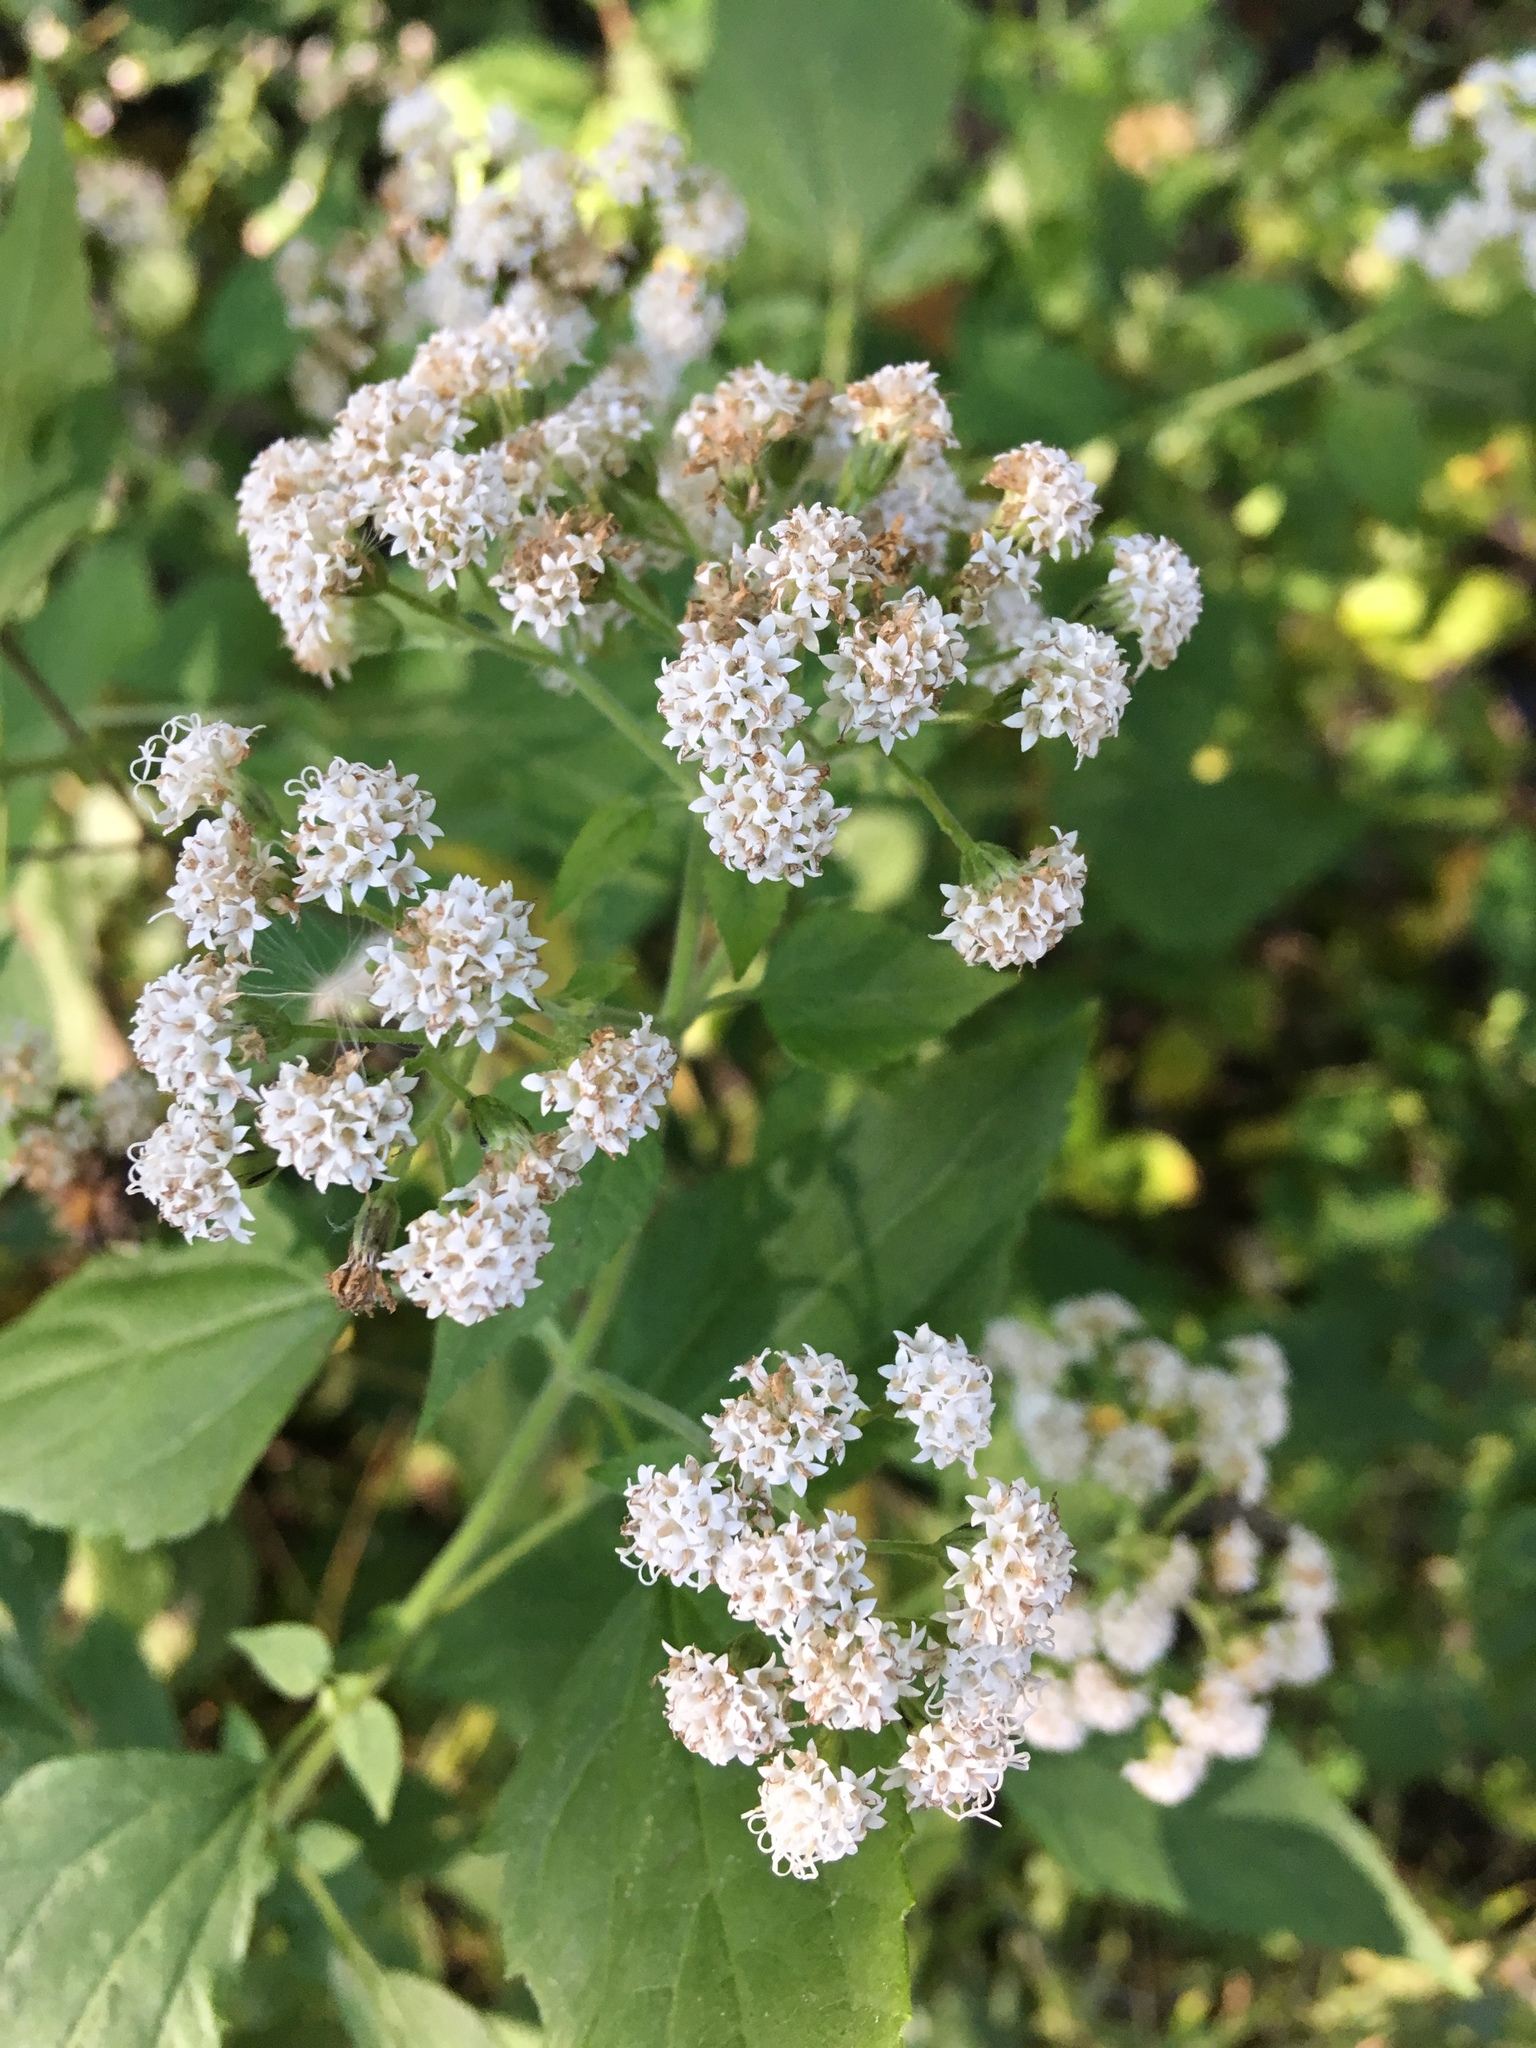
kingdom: Plantae
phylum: Tracheophyta
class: Magnoliopsida
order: Asterales
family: Asteraceae
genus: Ageratina
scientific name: Ageratina altissima
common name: White snakeroot
